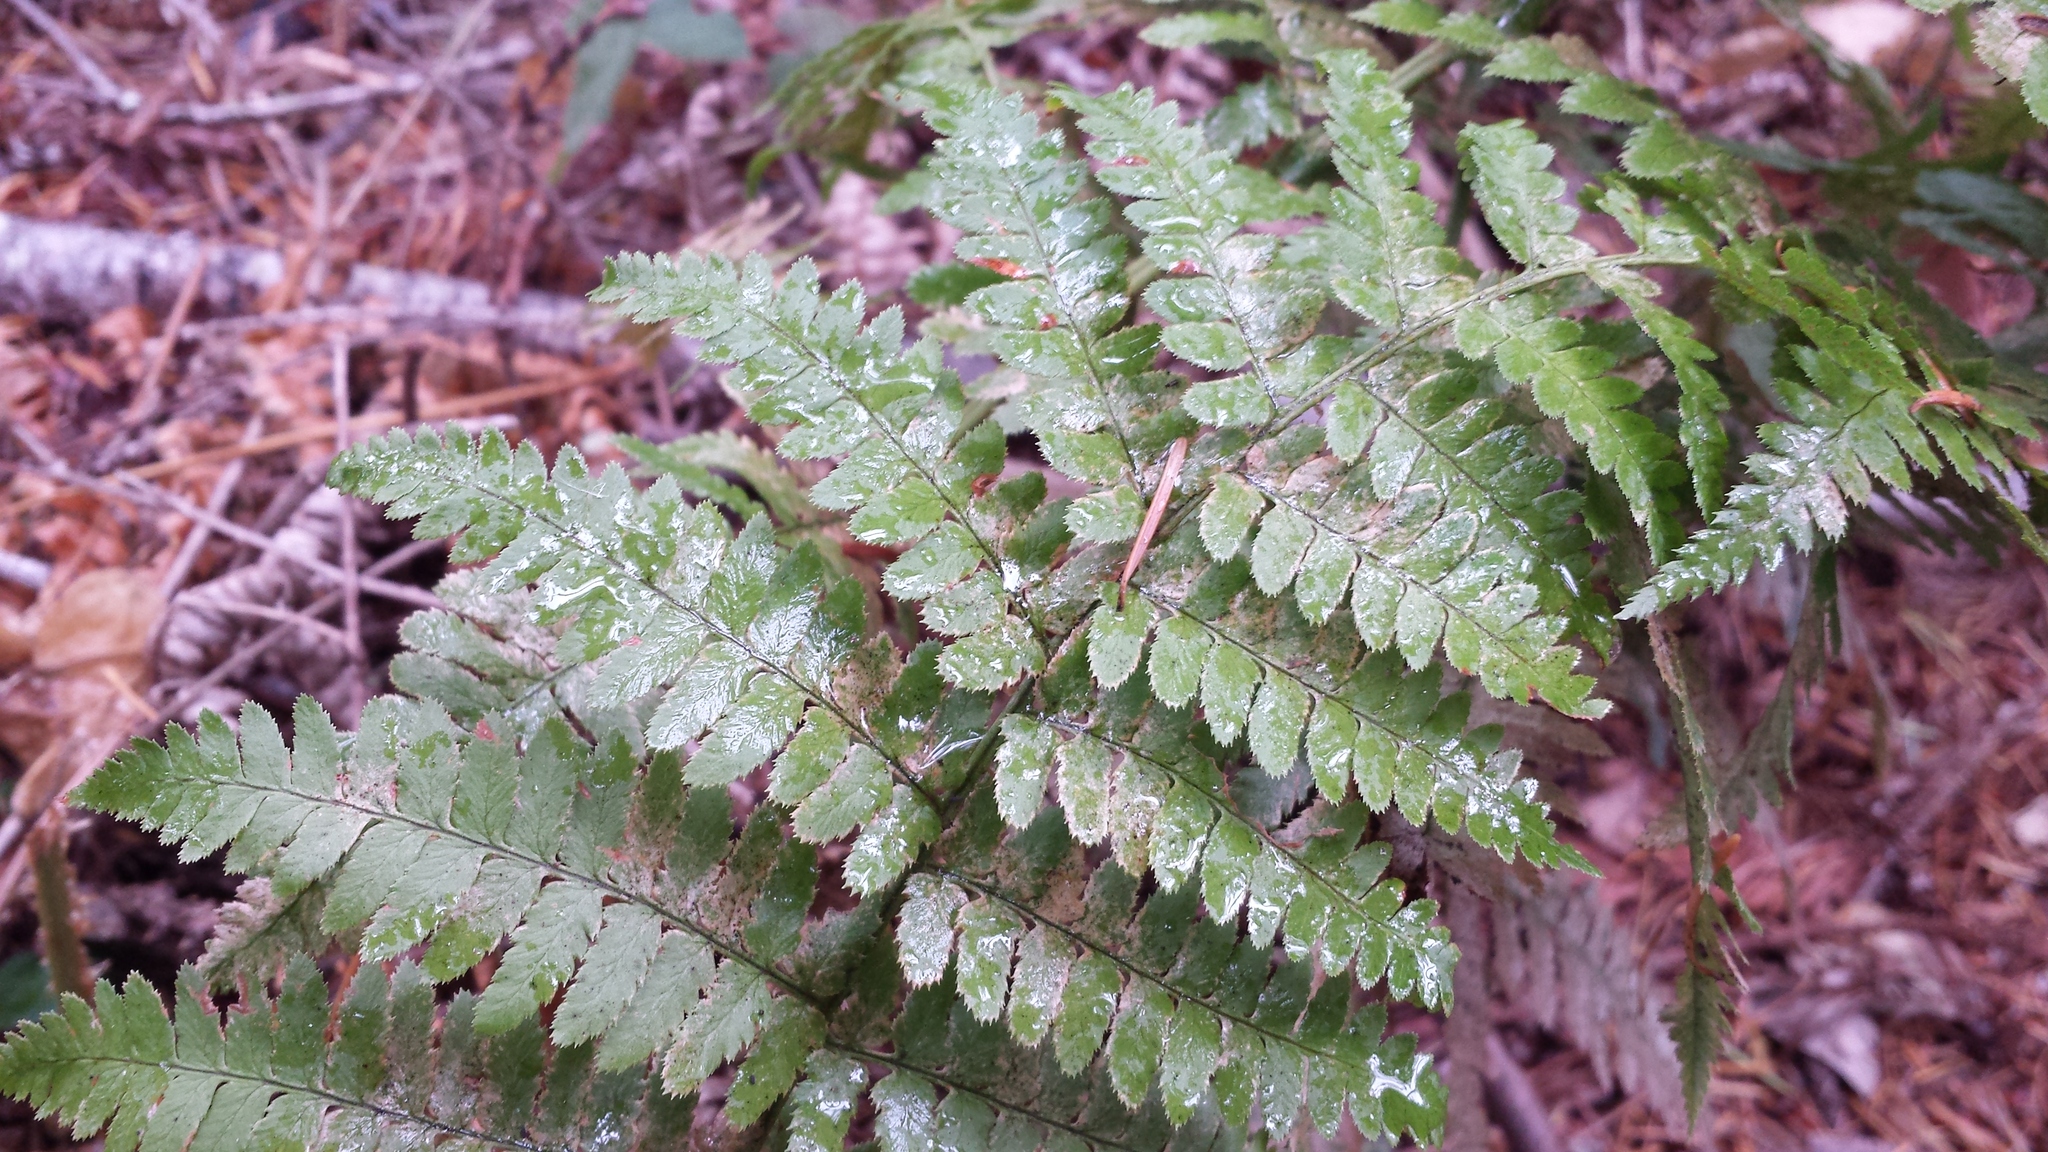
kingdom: Plantae
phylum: Tracheophyta
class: Polypodiopsida
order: Polypodiales
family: Dryopteridaceae
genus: Dryopteris
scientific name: Dryopteris arguta
